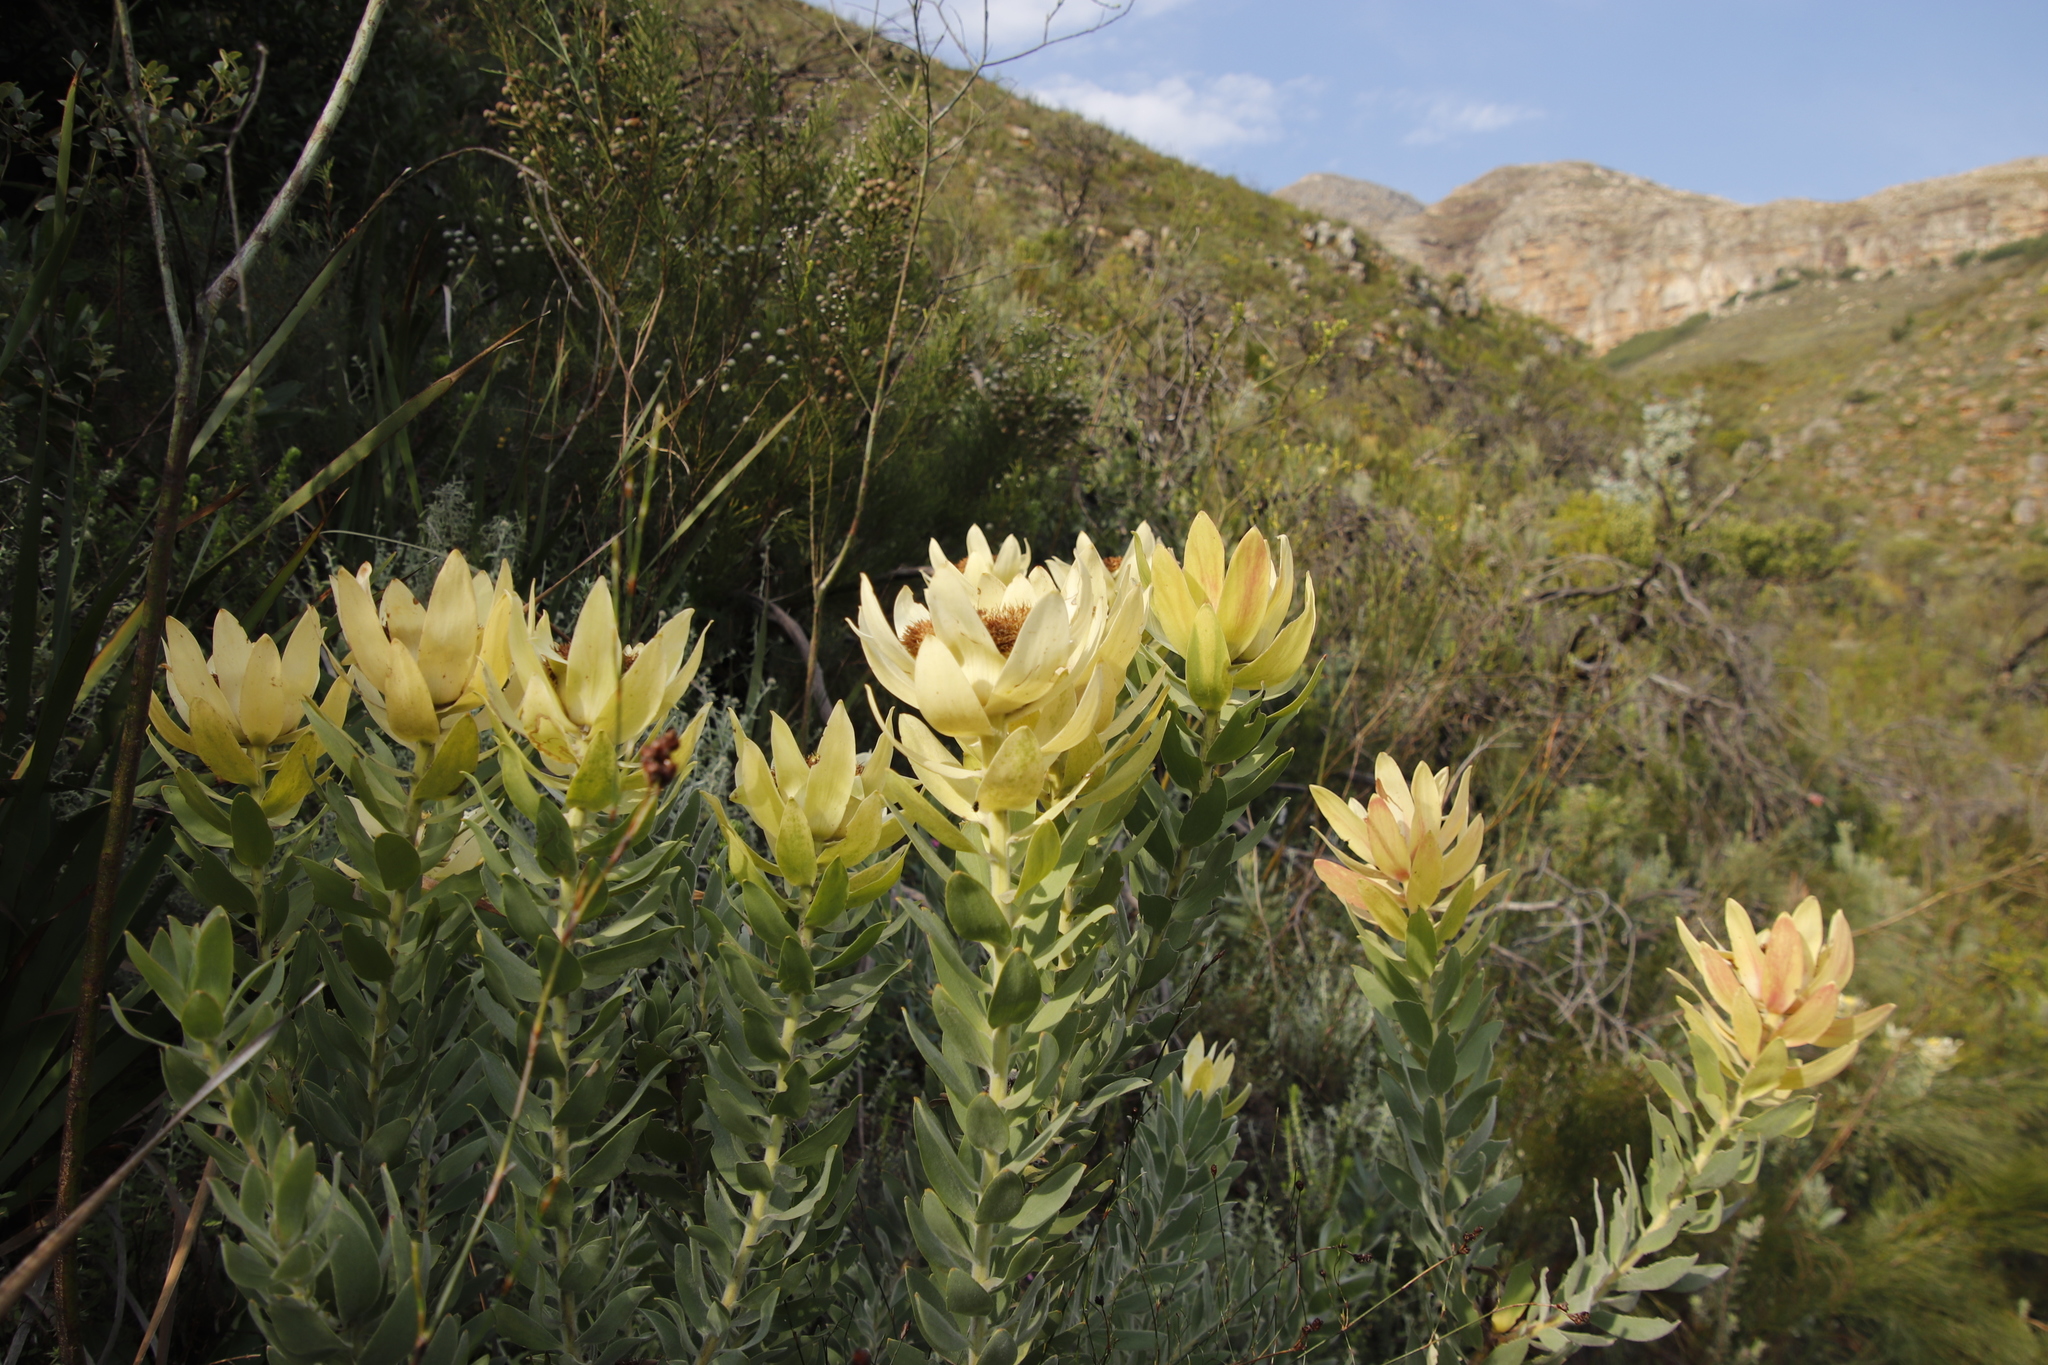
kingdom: Plantae
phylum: Tracheophyta
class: Magnoliopsida
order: Proteales
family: Proteaceae
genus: Leucadendron
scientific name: Leucadendron daphnoides
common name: Du toit's kloof conebush
